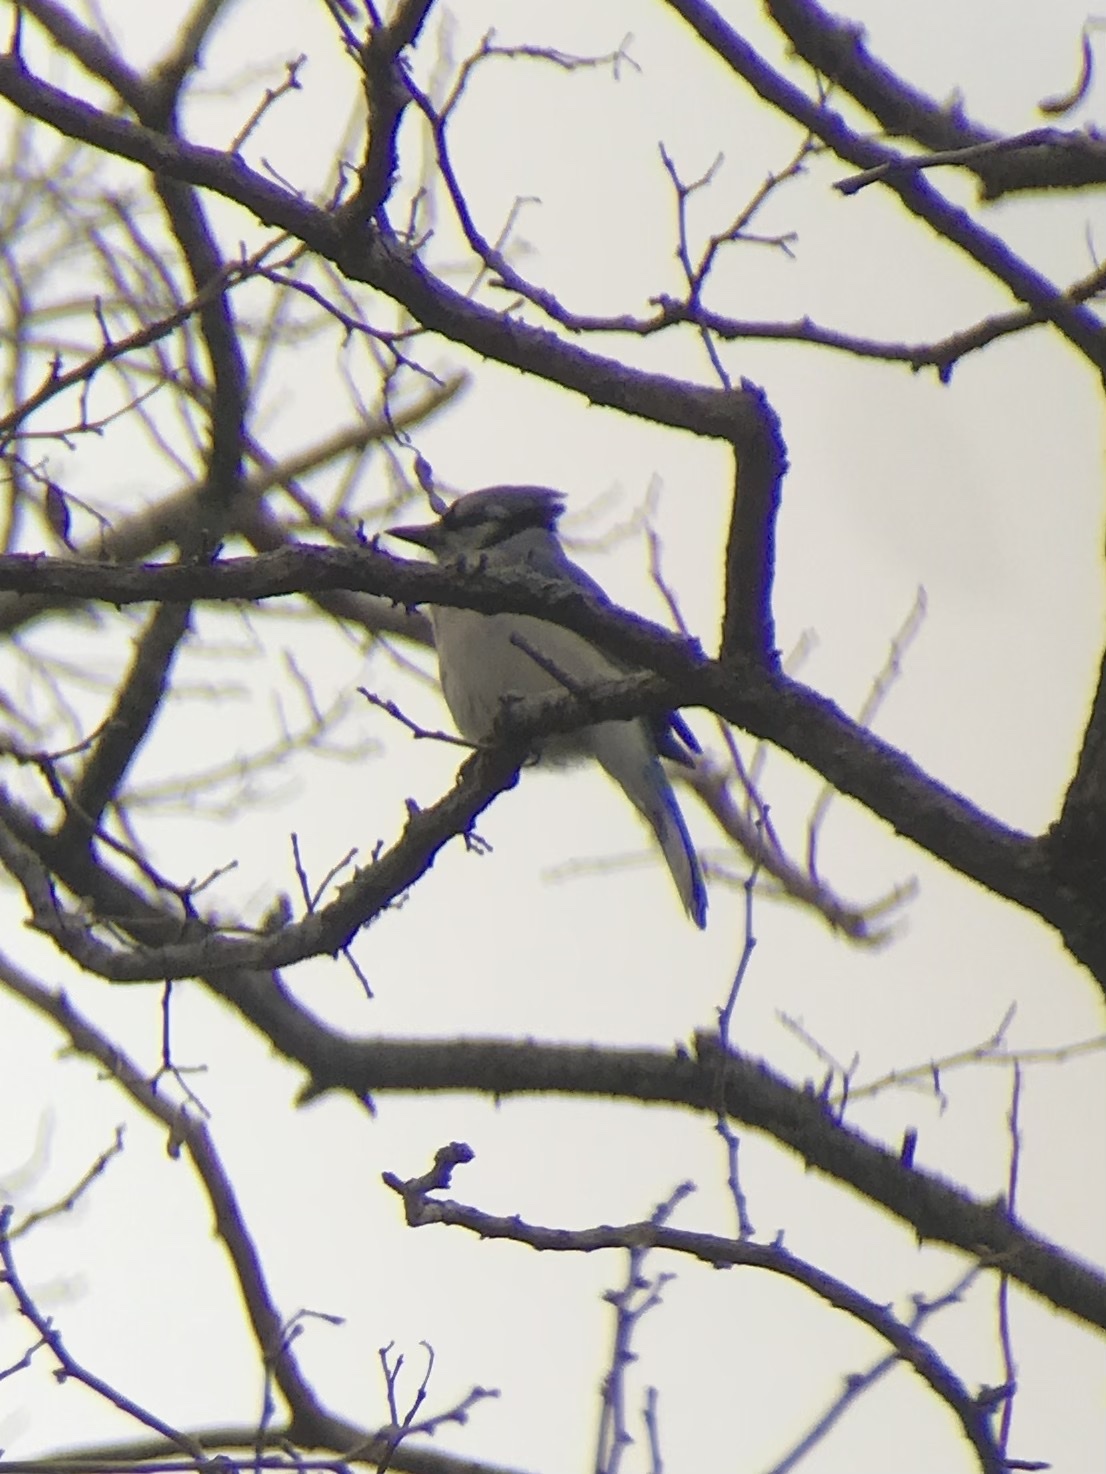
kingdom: Animalia
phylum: Chordata
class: Aves
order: Passeriformes
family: Corvidae
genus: Cyanocitta
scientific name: Cyanocitta cristata
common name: Blue jay
